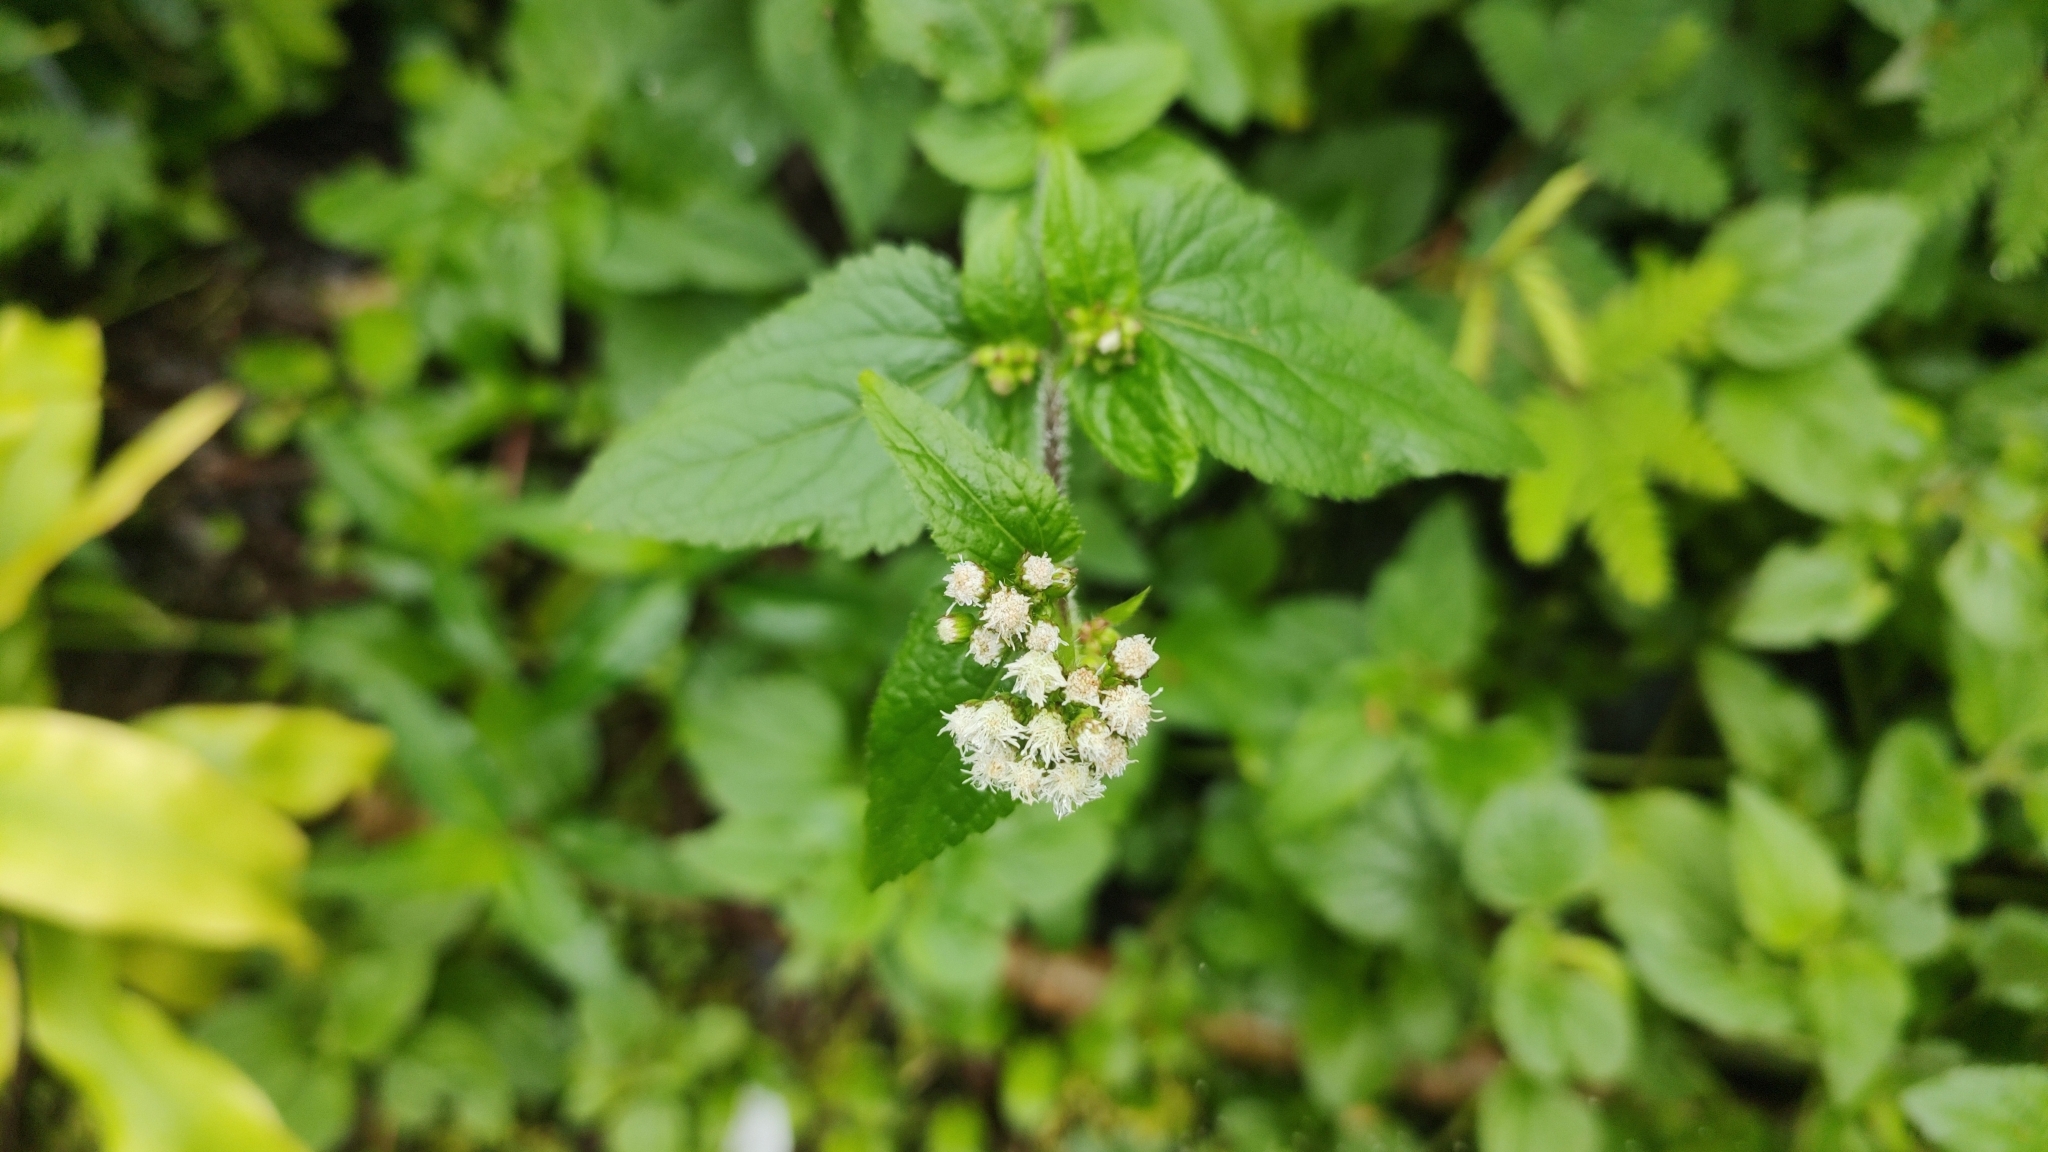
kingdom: Plantae
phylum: Tracheophyta
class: Magnoliopsida
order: Asterales
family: Asteraceae
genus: Ageratum
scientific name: Ageratum conyzoides
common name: Tropical whiteweed
